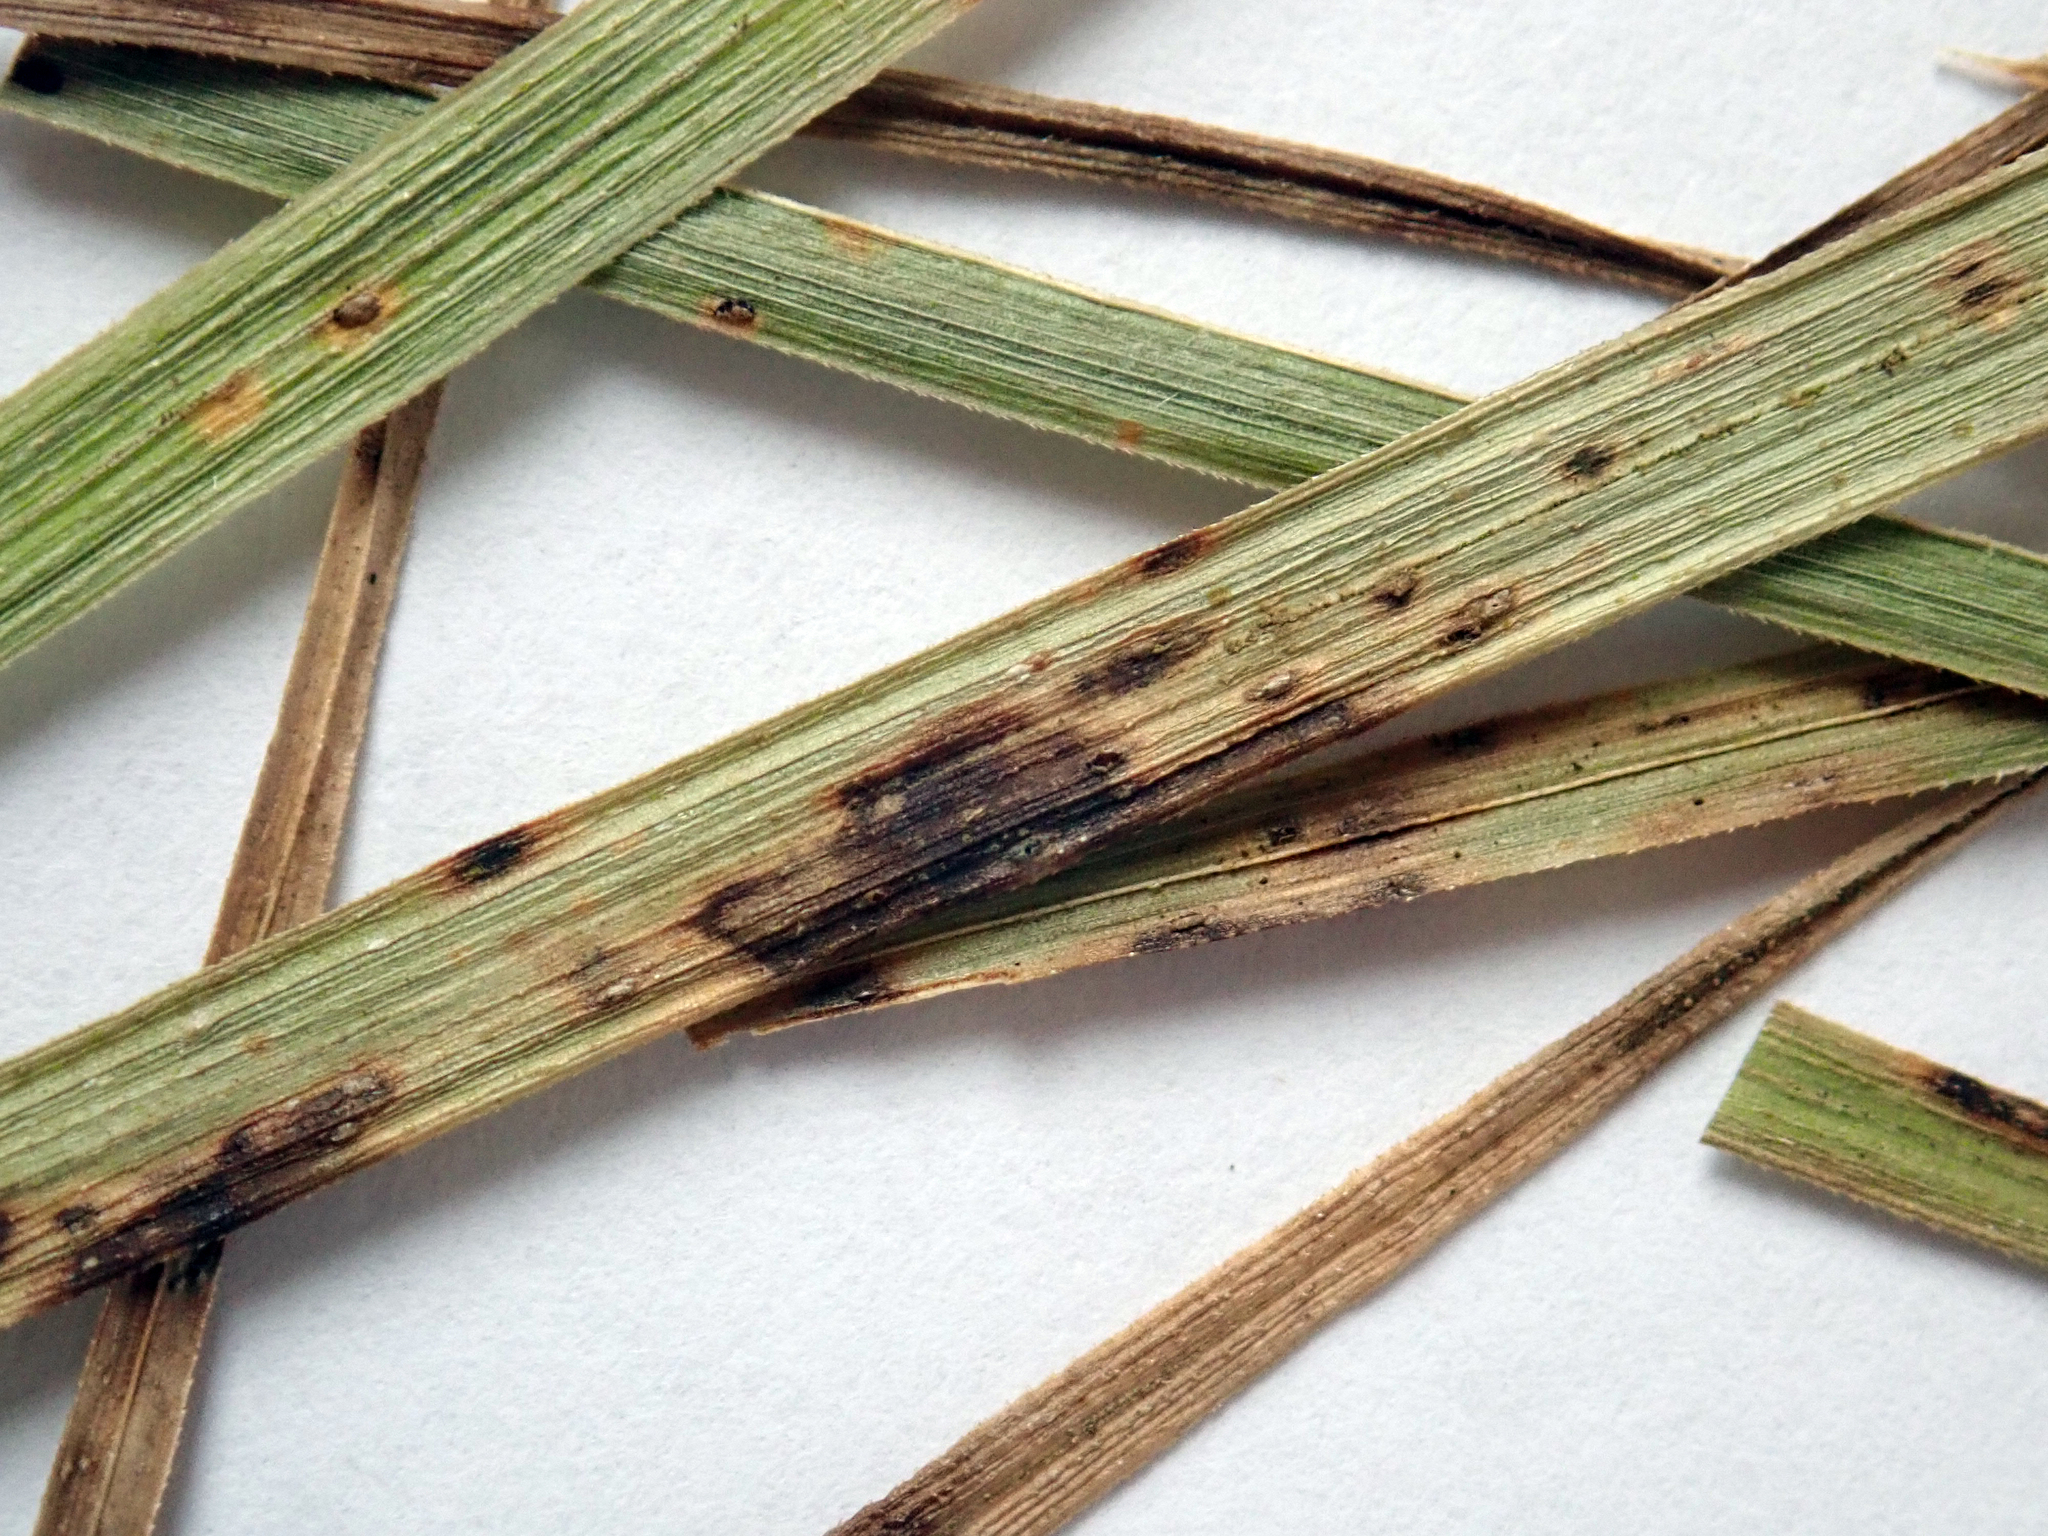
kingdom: Fungi
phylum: Basidiomycota
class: Pucciniomycetes
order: Pucciniales
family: Pucciniaceae
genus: Puccinia
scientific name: Puccinia unciniarum
